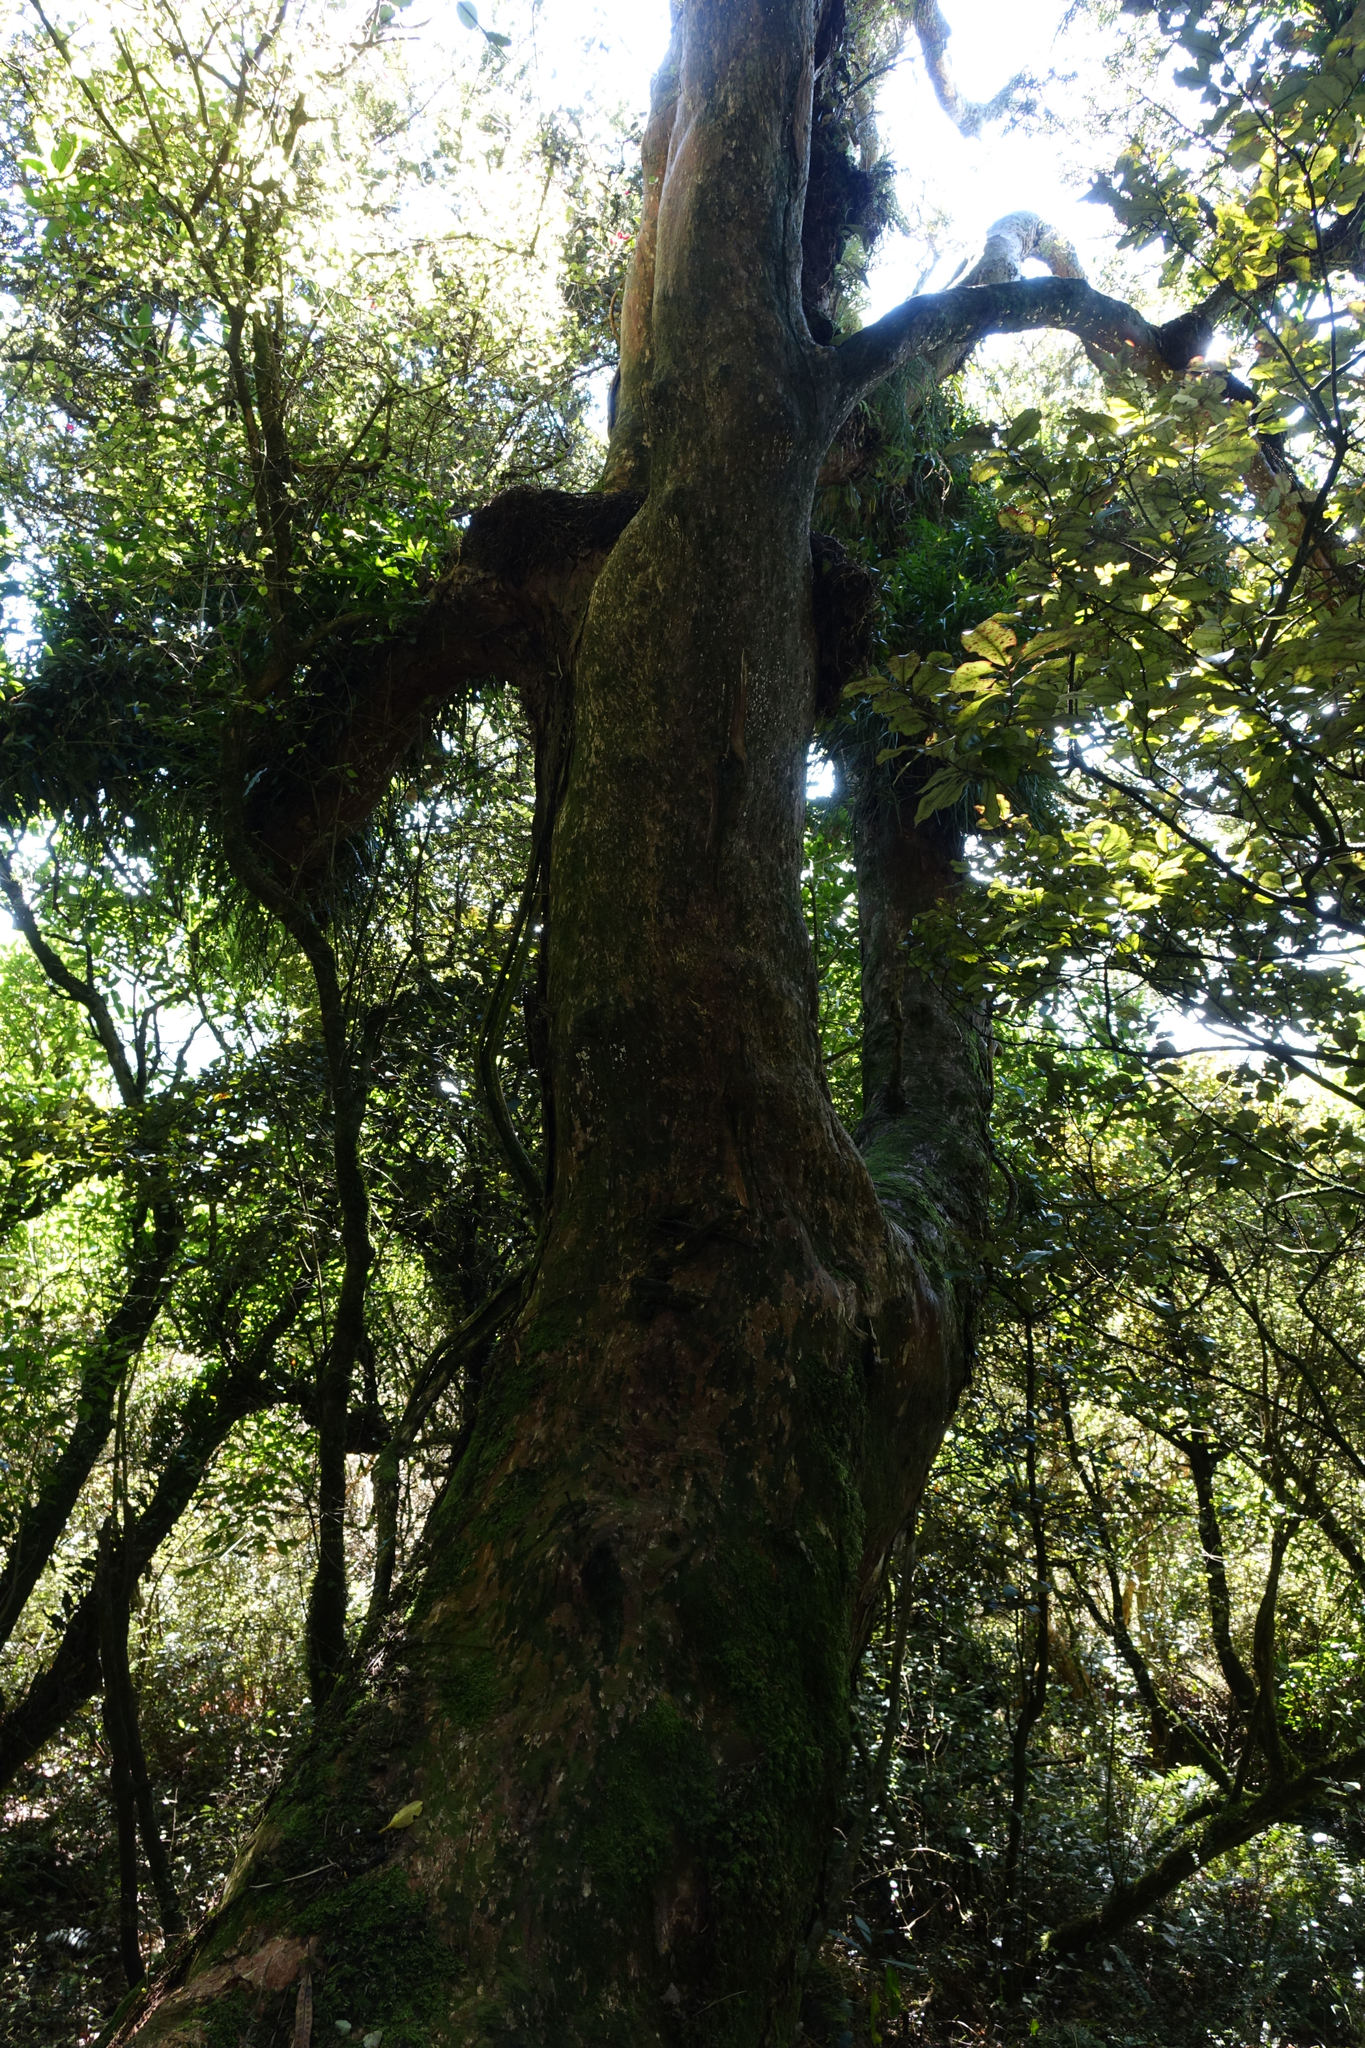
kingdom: Plantae
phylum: Tracheophyta
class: Pinopsida
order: Pinales
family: Podocarpaceae
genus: Podocarpus
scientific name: Podocarpus laetus
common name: Hall's totara
